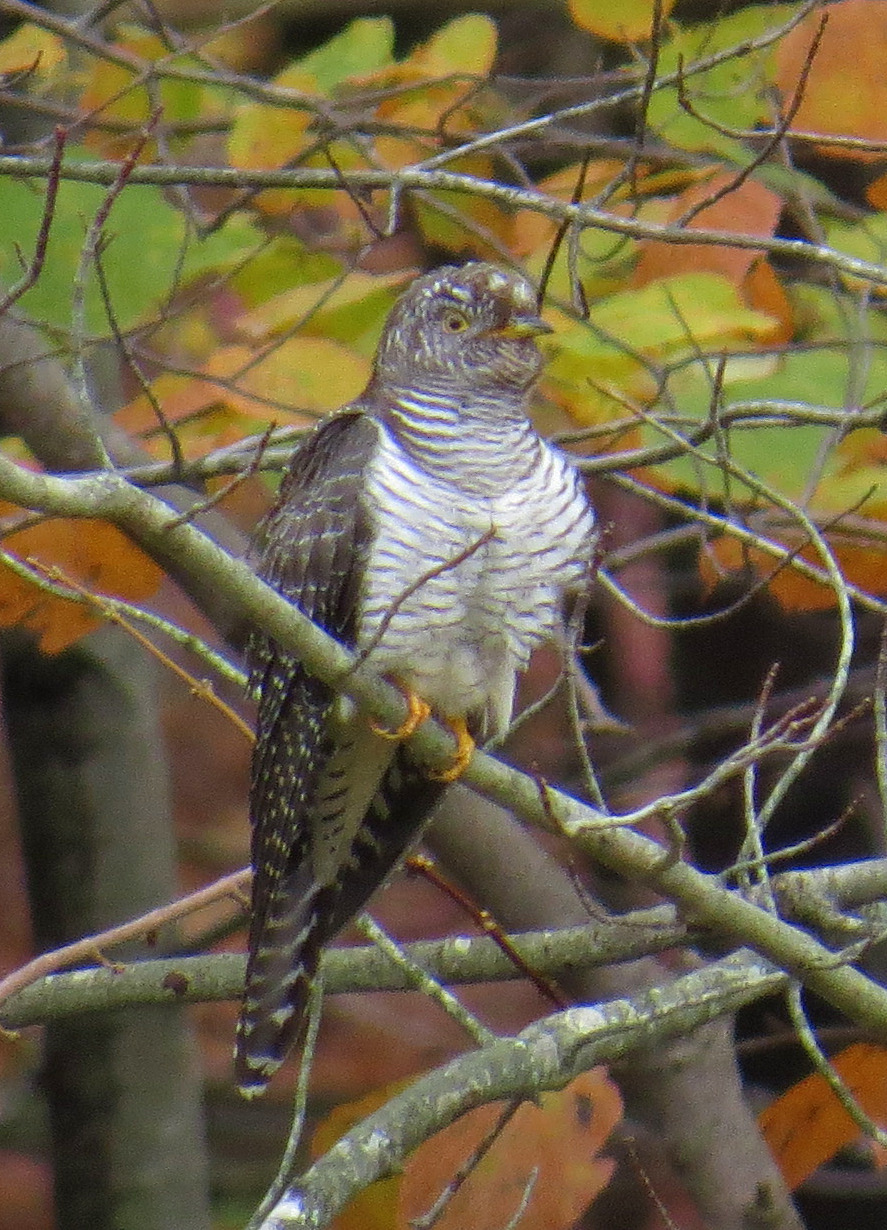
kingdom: Animalia
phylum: Chordata
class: Aves
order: Cuculiformes
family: Cuculidae
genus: Cuculus
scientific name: Cuculus canorus
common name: Common cuckoo
